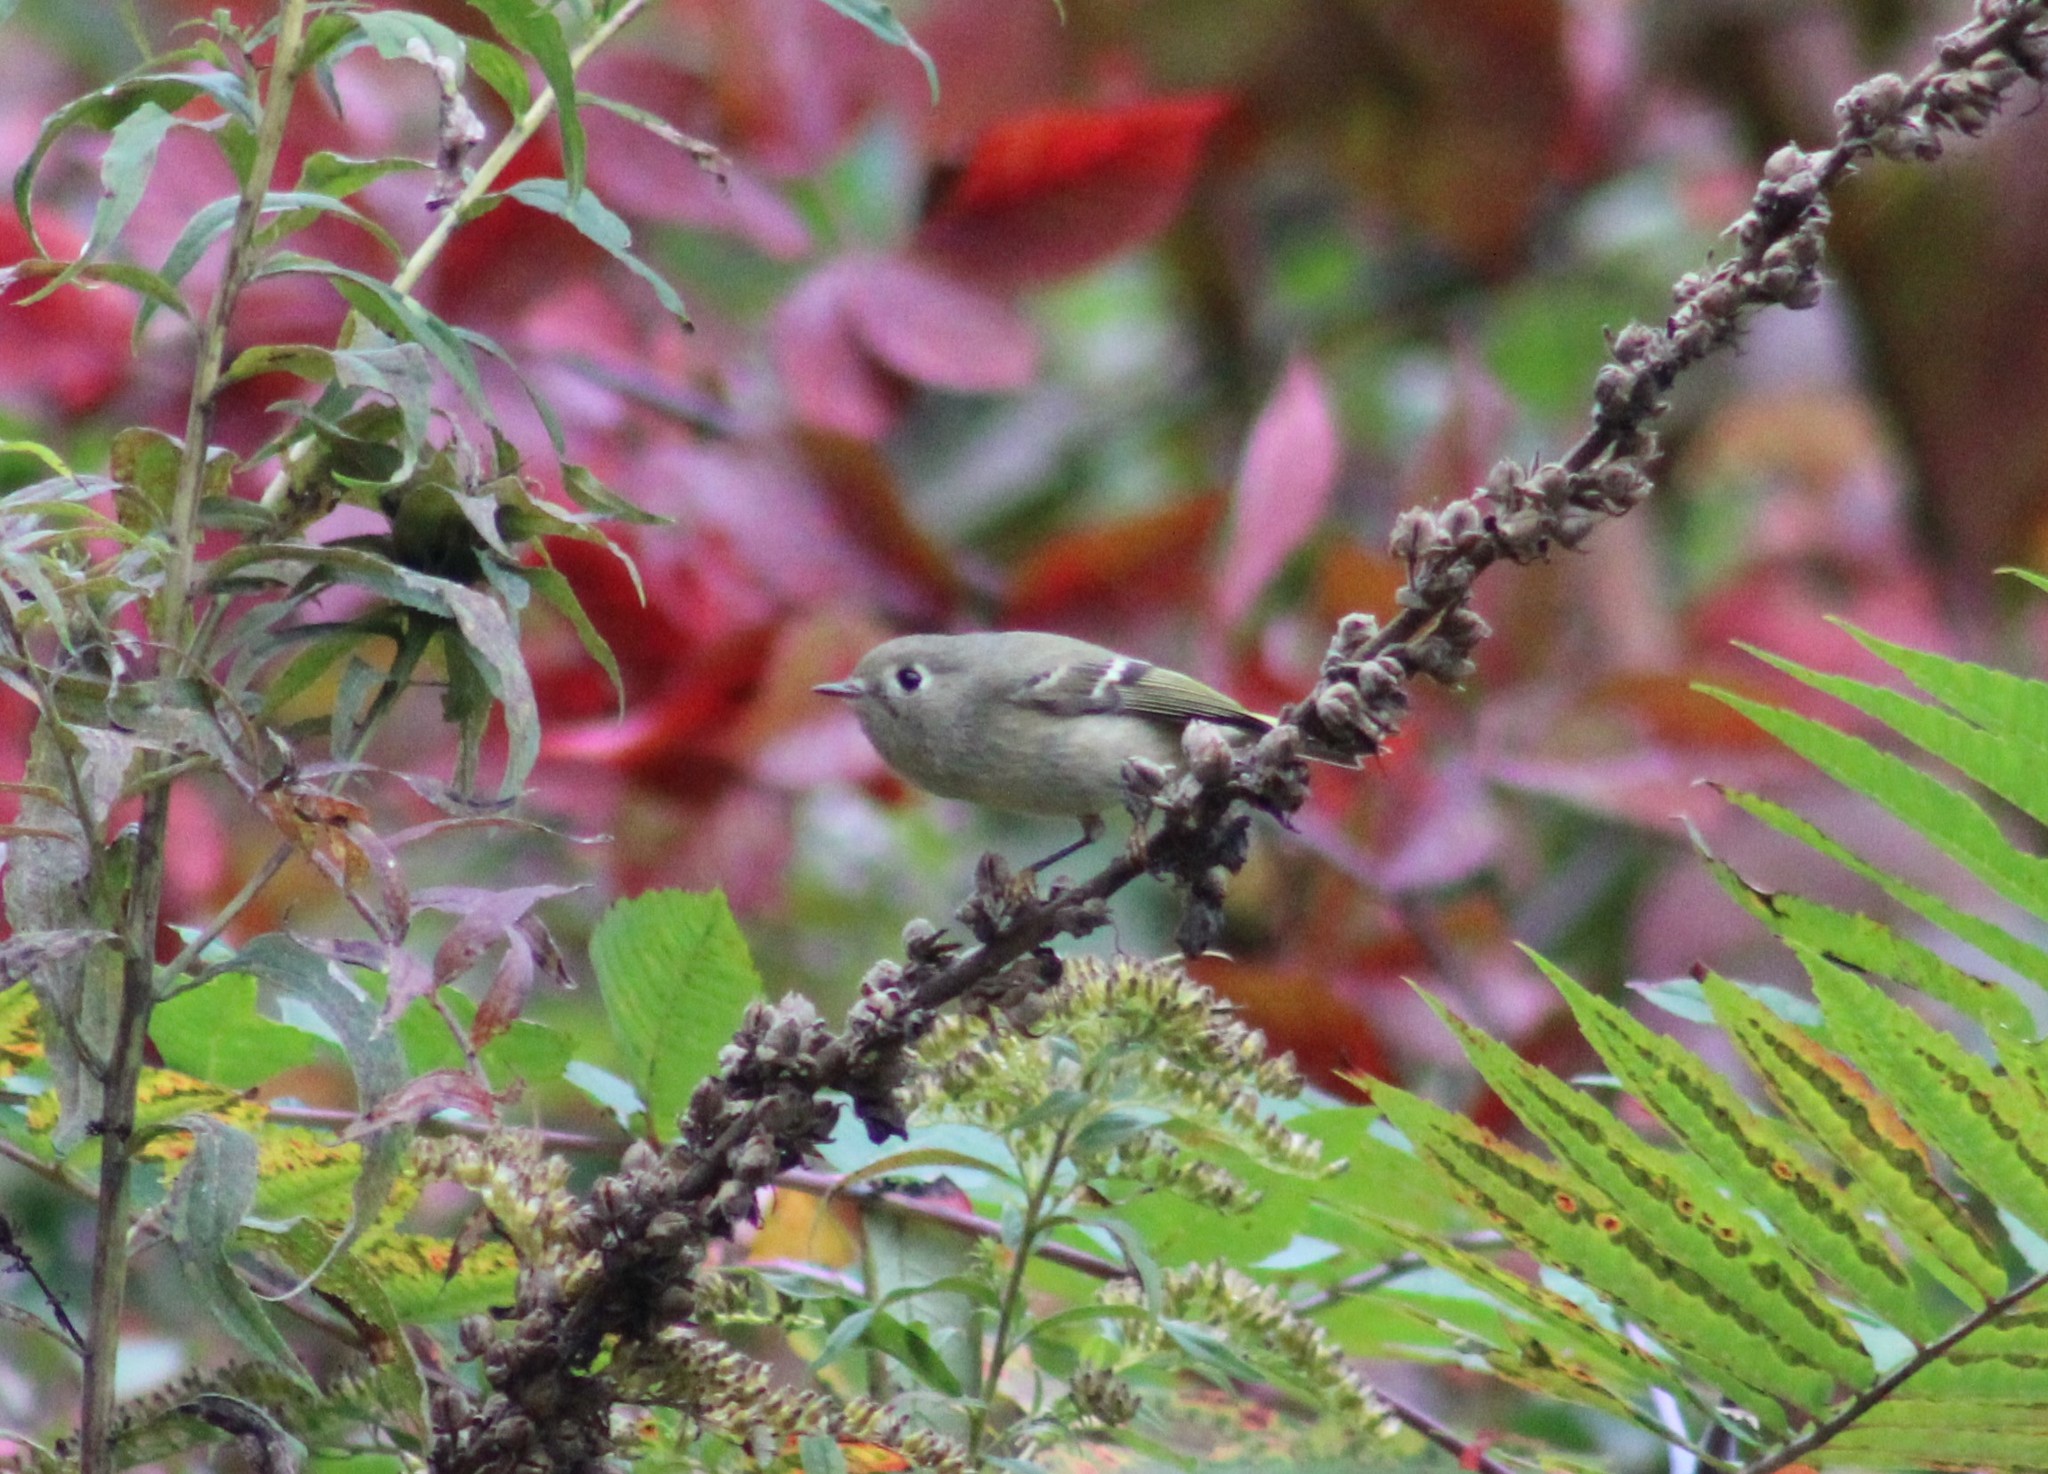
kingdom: Animalia
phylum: Chordata
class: Aves
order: Passeriformes
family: Regulidae
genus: Regulus
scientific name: Regulus calendula
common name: Ruby-crowned kinglet
